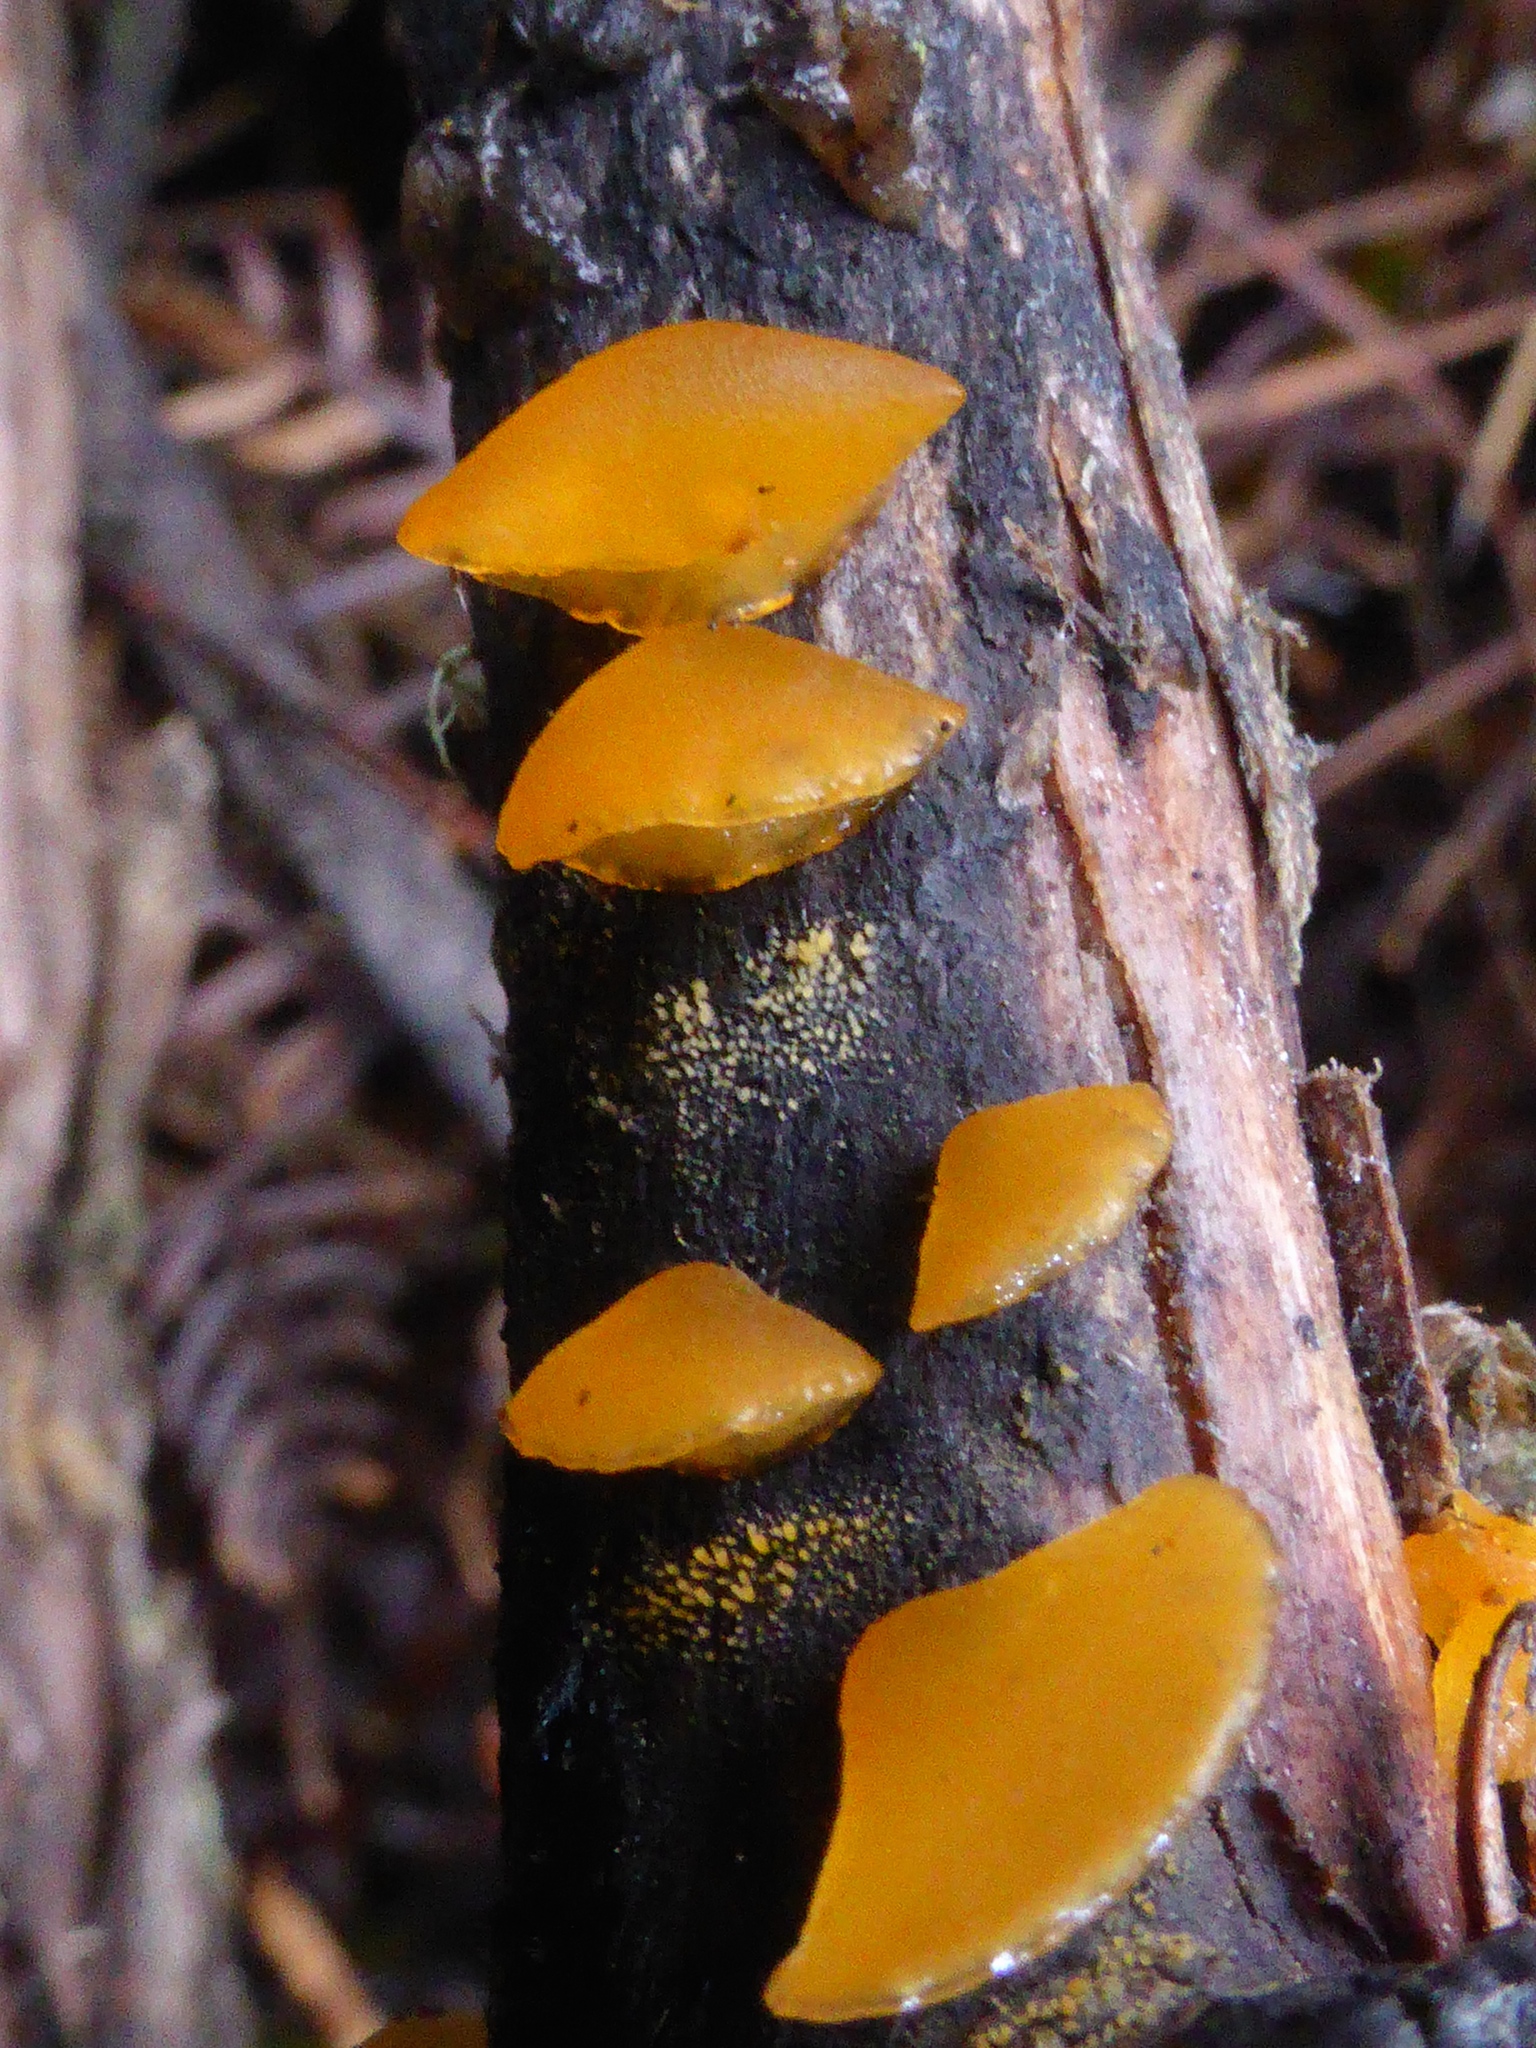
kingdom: Fungi
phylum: Basidiomycota
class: Dacrymycetes
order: Dacrymycetales
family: Dacrymycetaceae
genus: Heterotextus
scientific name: Heterotextus miltinus
